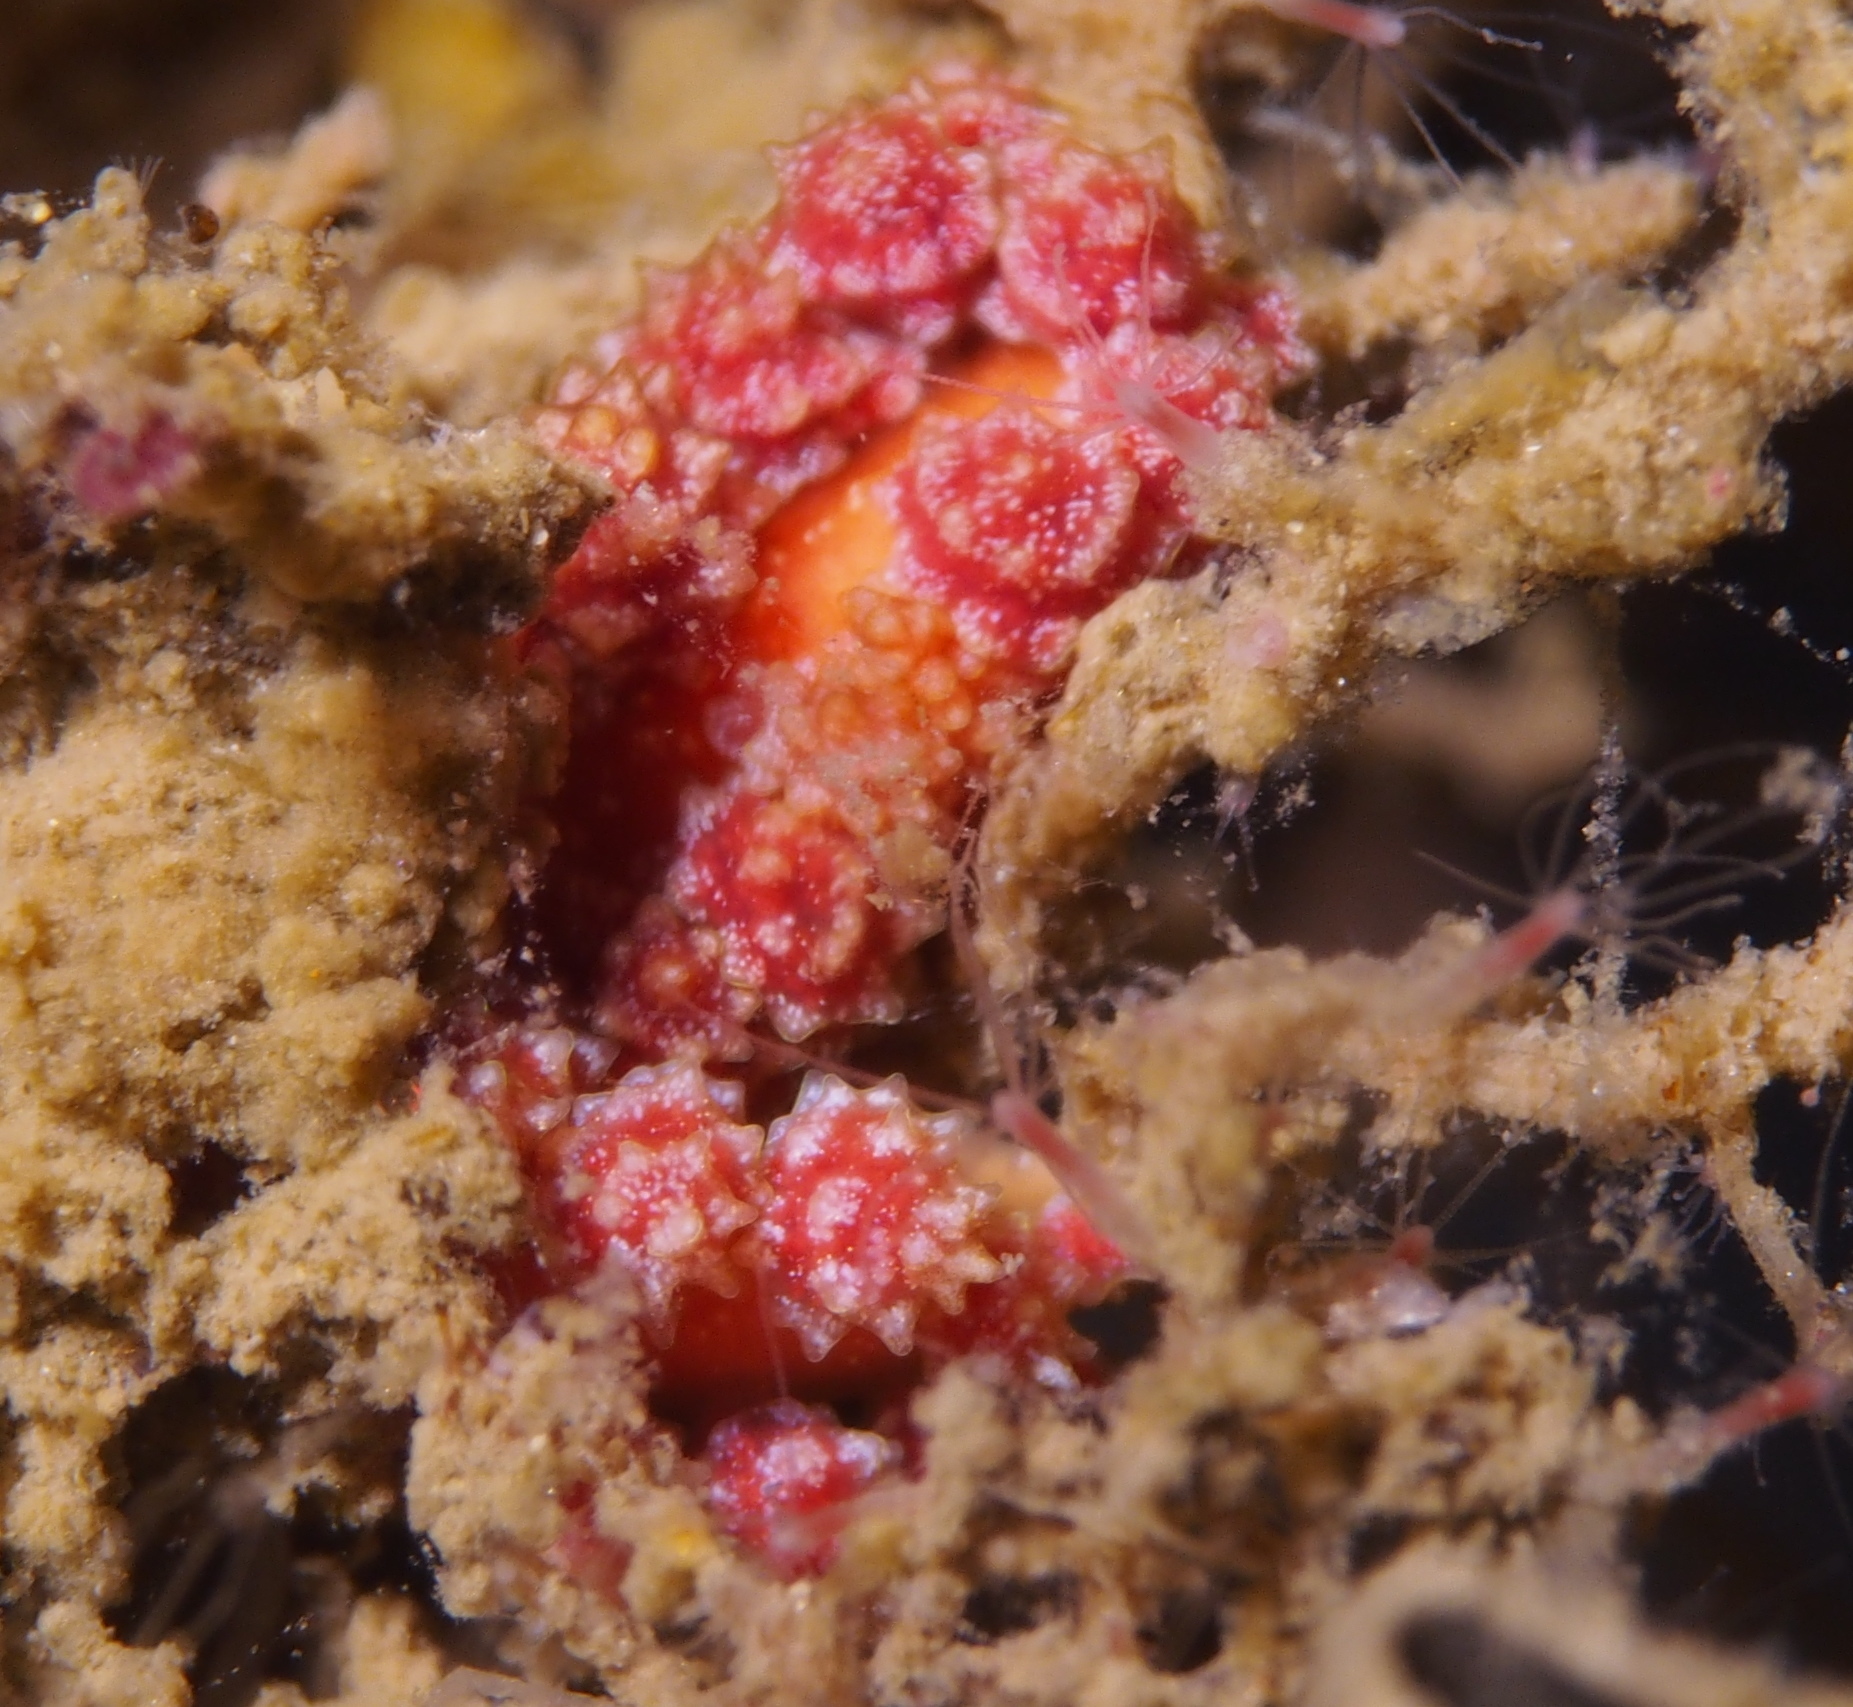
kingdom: Animalia
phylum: Mollusca
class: Gastropoda
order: Nudibranchia
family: Dotidae
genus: Doto
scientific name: Doto fragilis
